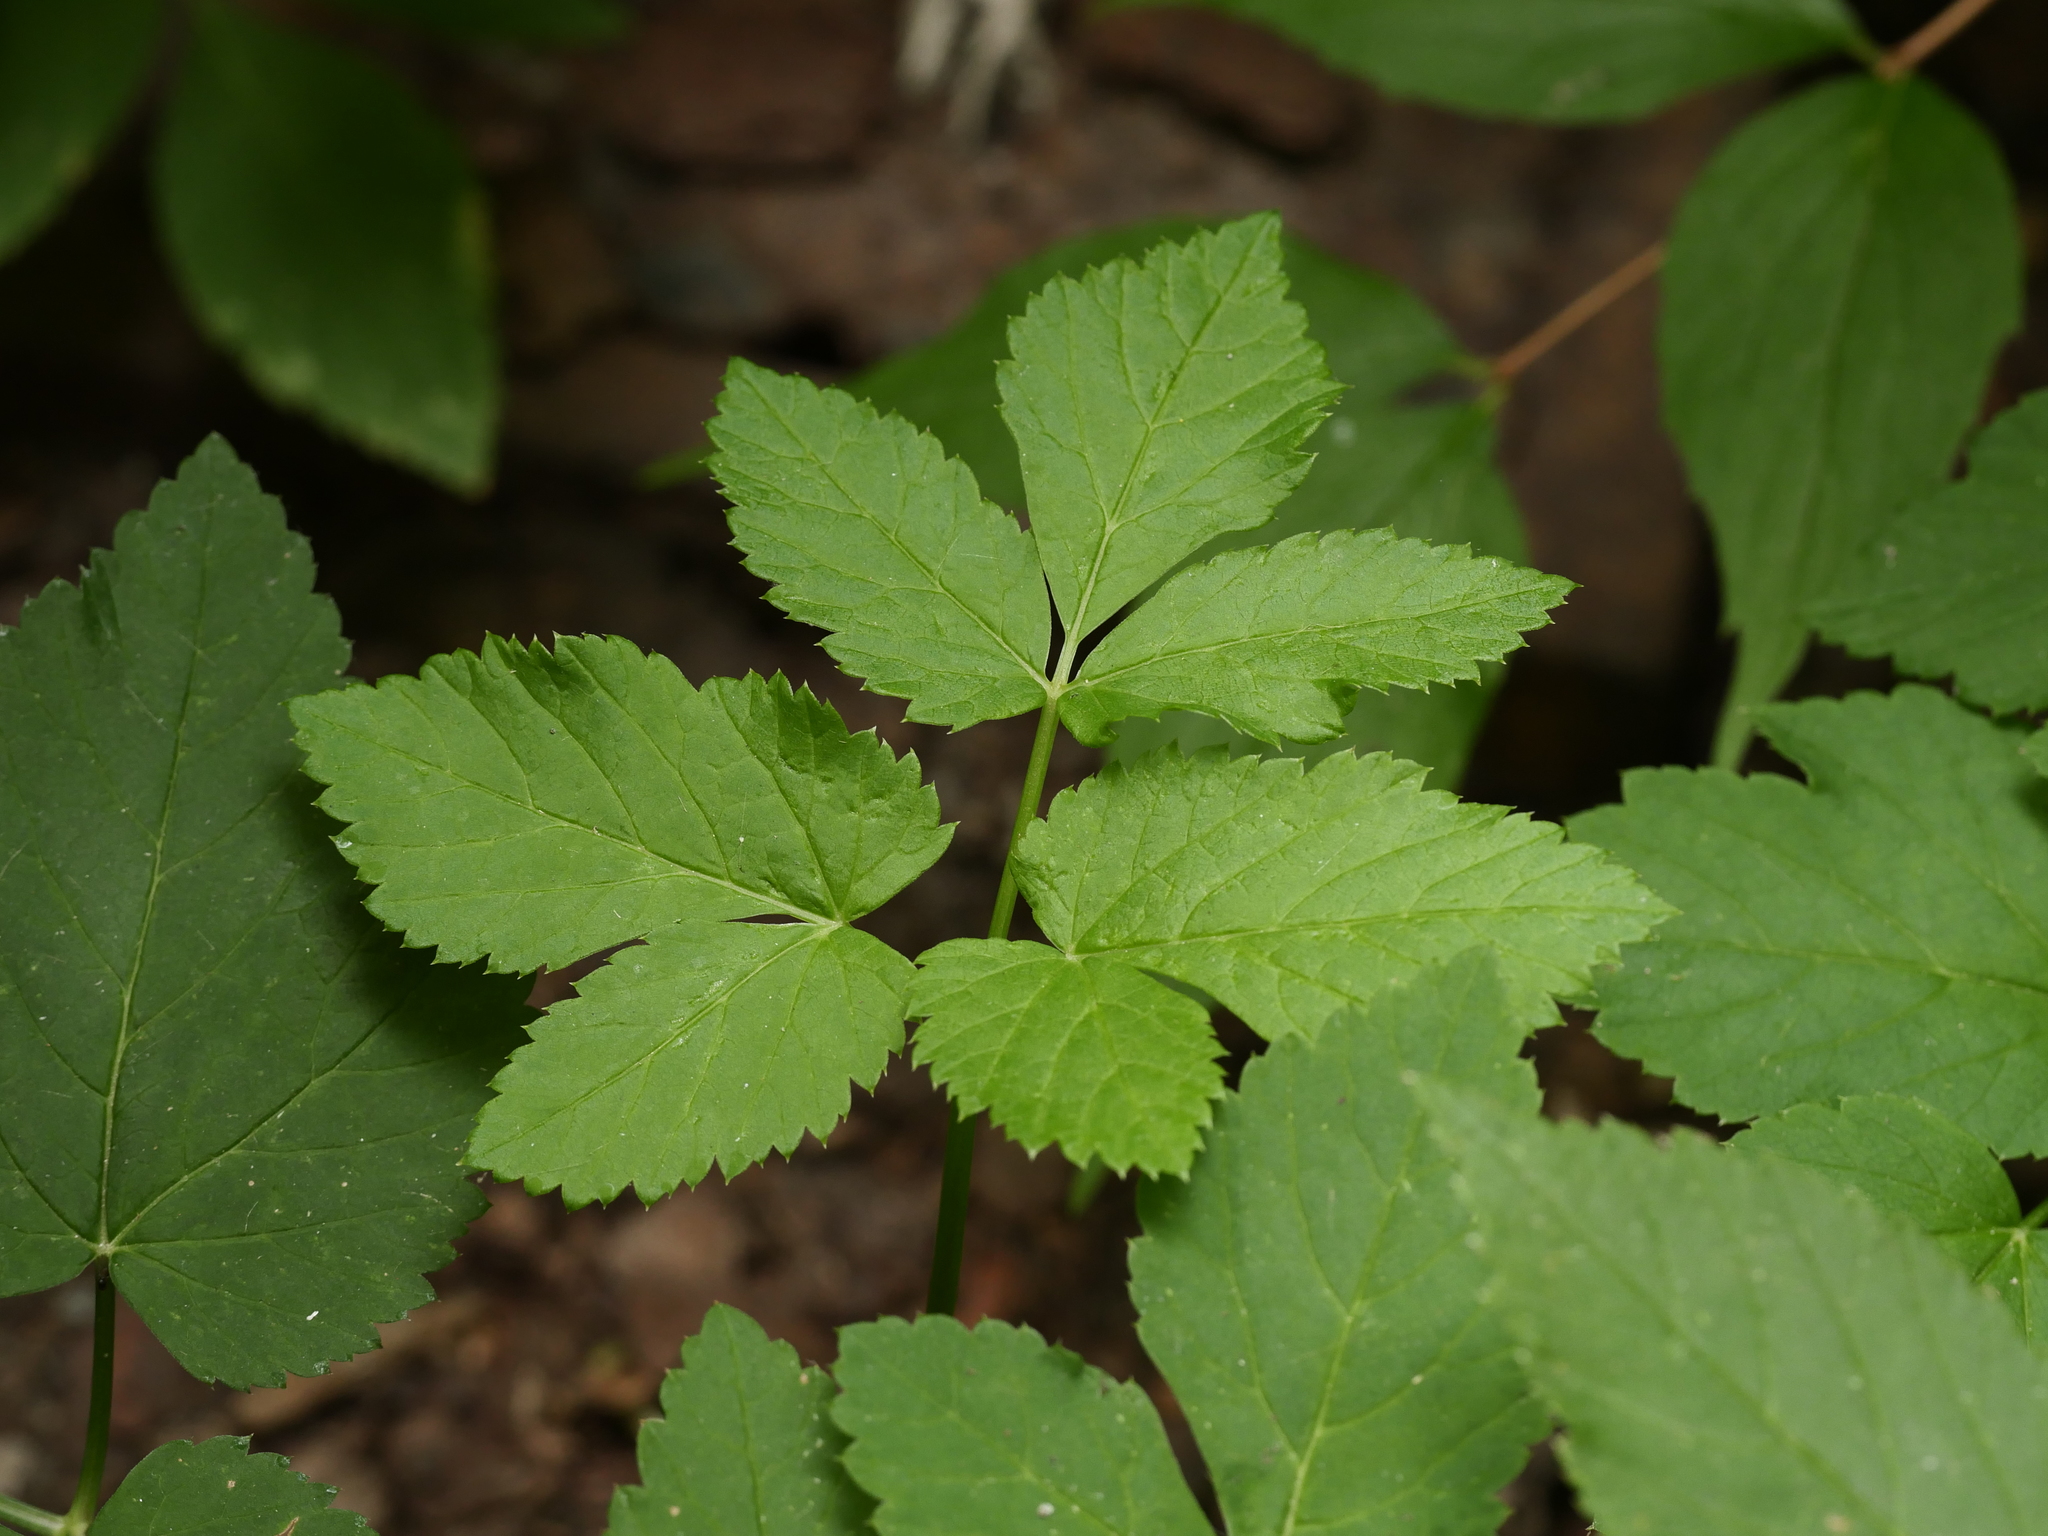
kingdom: Plantae
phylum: Tracheophyta
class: Magnoliopsida
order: Apiales
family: Apiaceae
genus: Aegopodium
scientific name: Aegopodium podagraria
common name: Ground-elder
